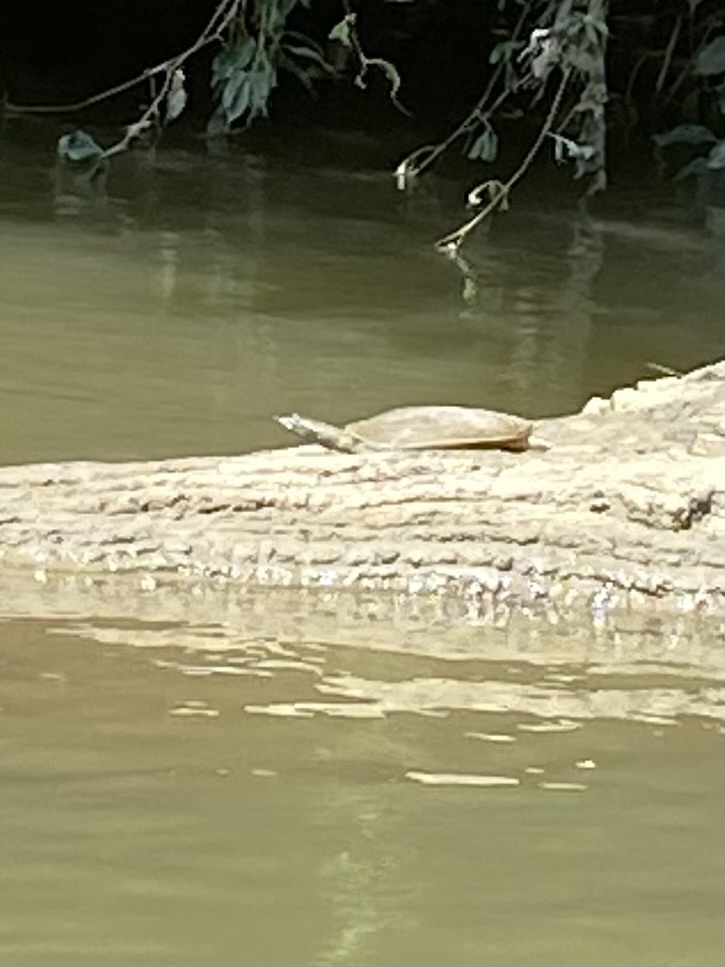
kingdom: Animalia
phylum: Chordata
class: Testudines
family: Trionychidae
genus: Apalone
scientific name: Apalone spinifera
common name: Spiny softshell turtle
